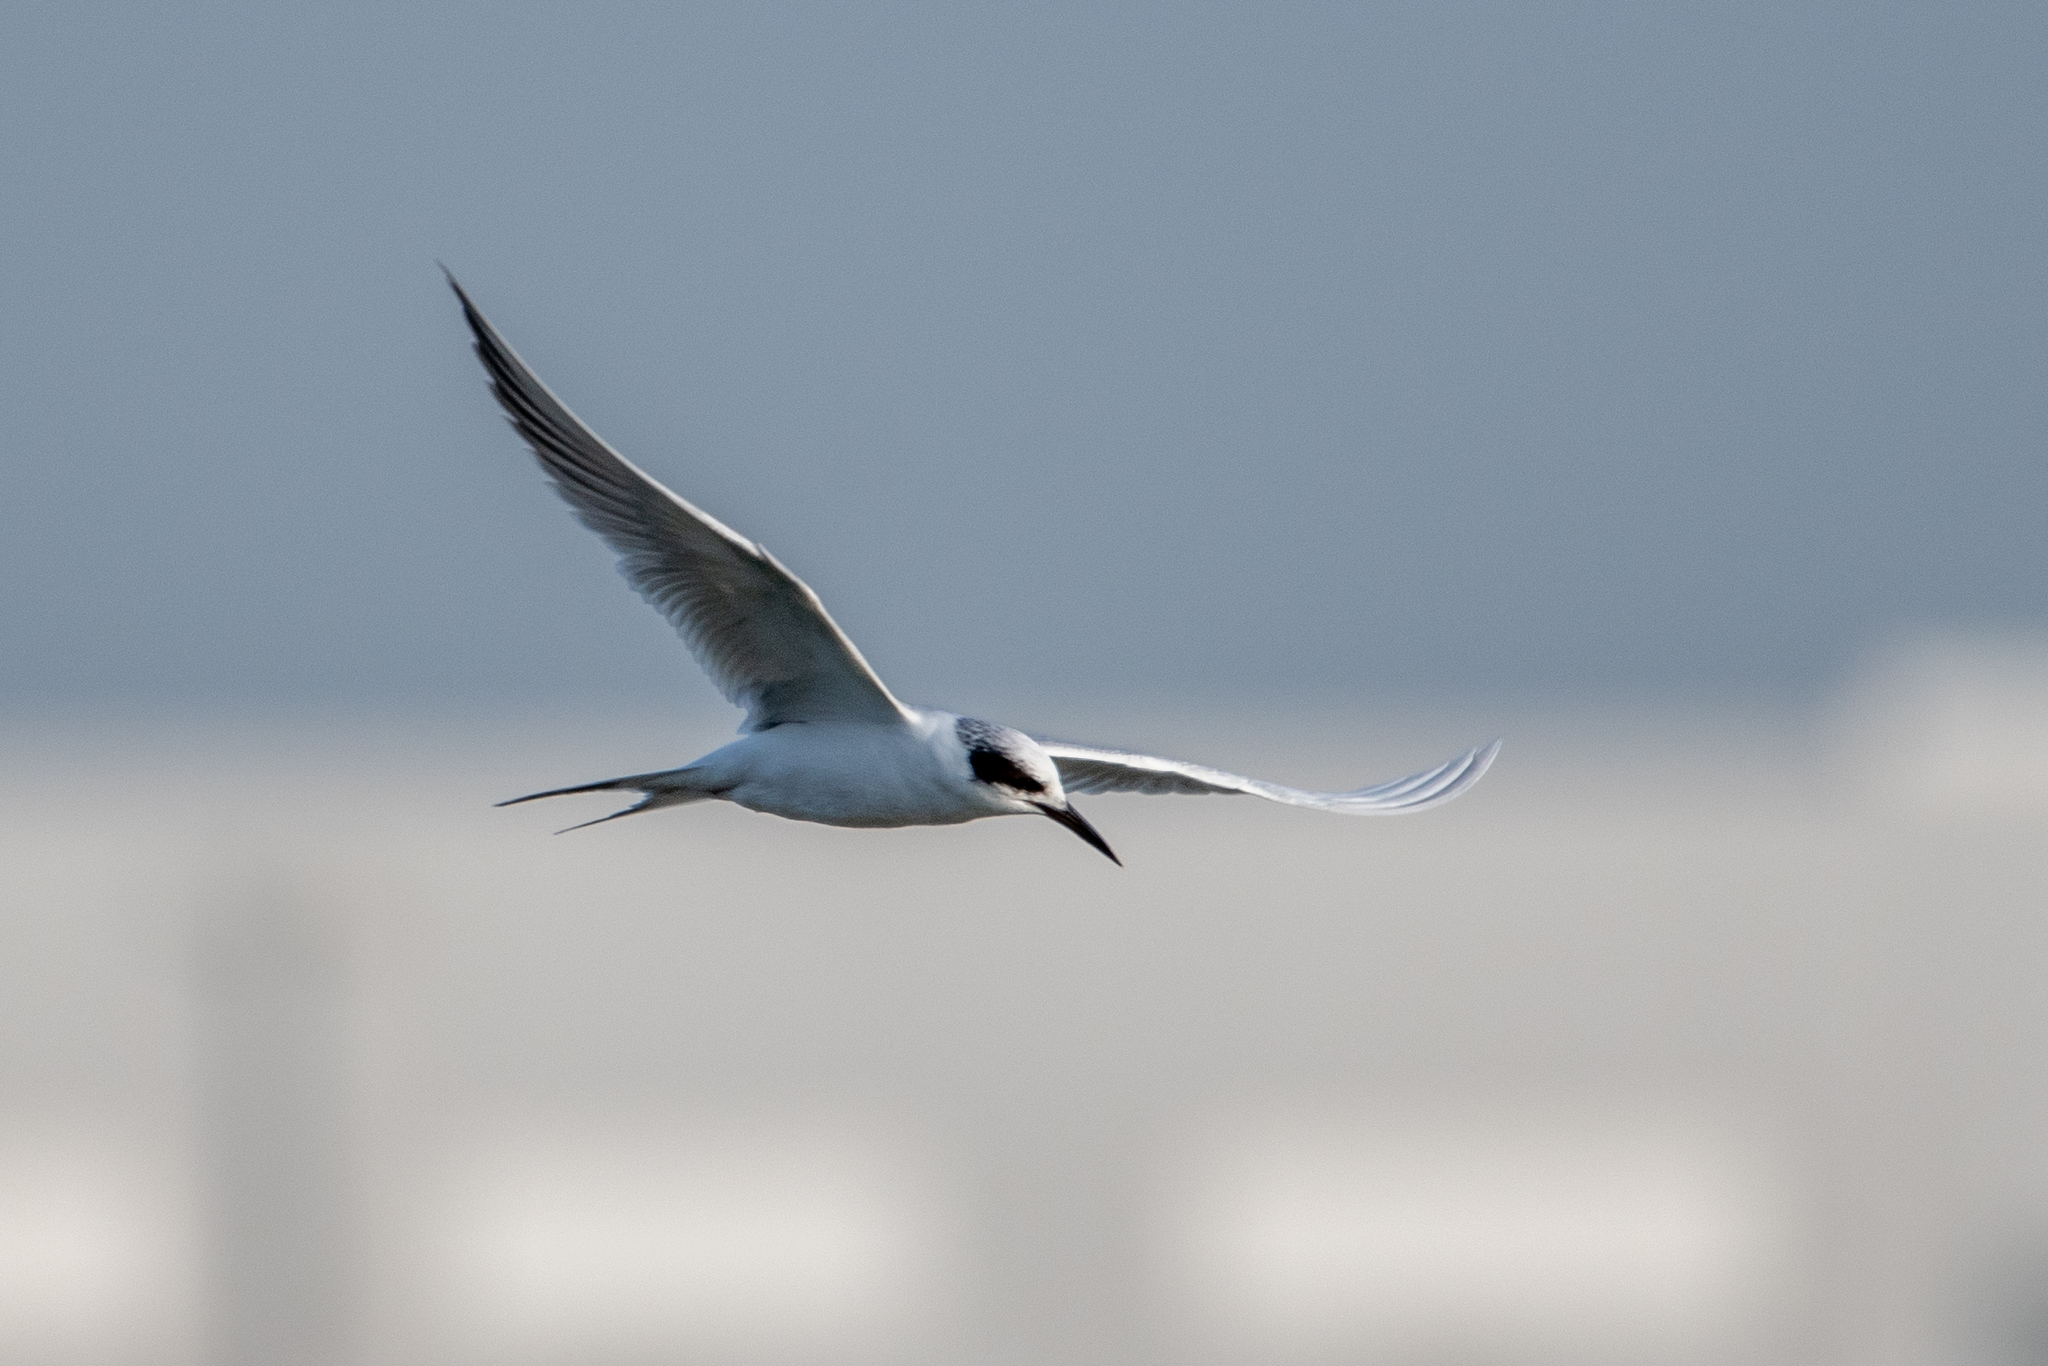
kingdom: Animalia
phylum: Chordata
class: Aves
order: Charadriiformes
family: Laridae
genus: Sterna
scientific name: Sterna forsteri
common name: Forster's tern
